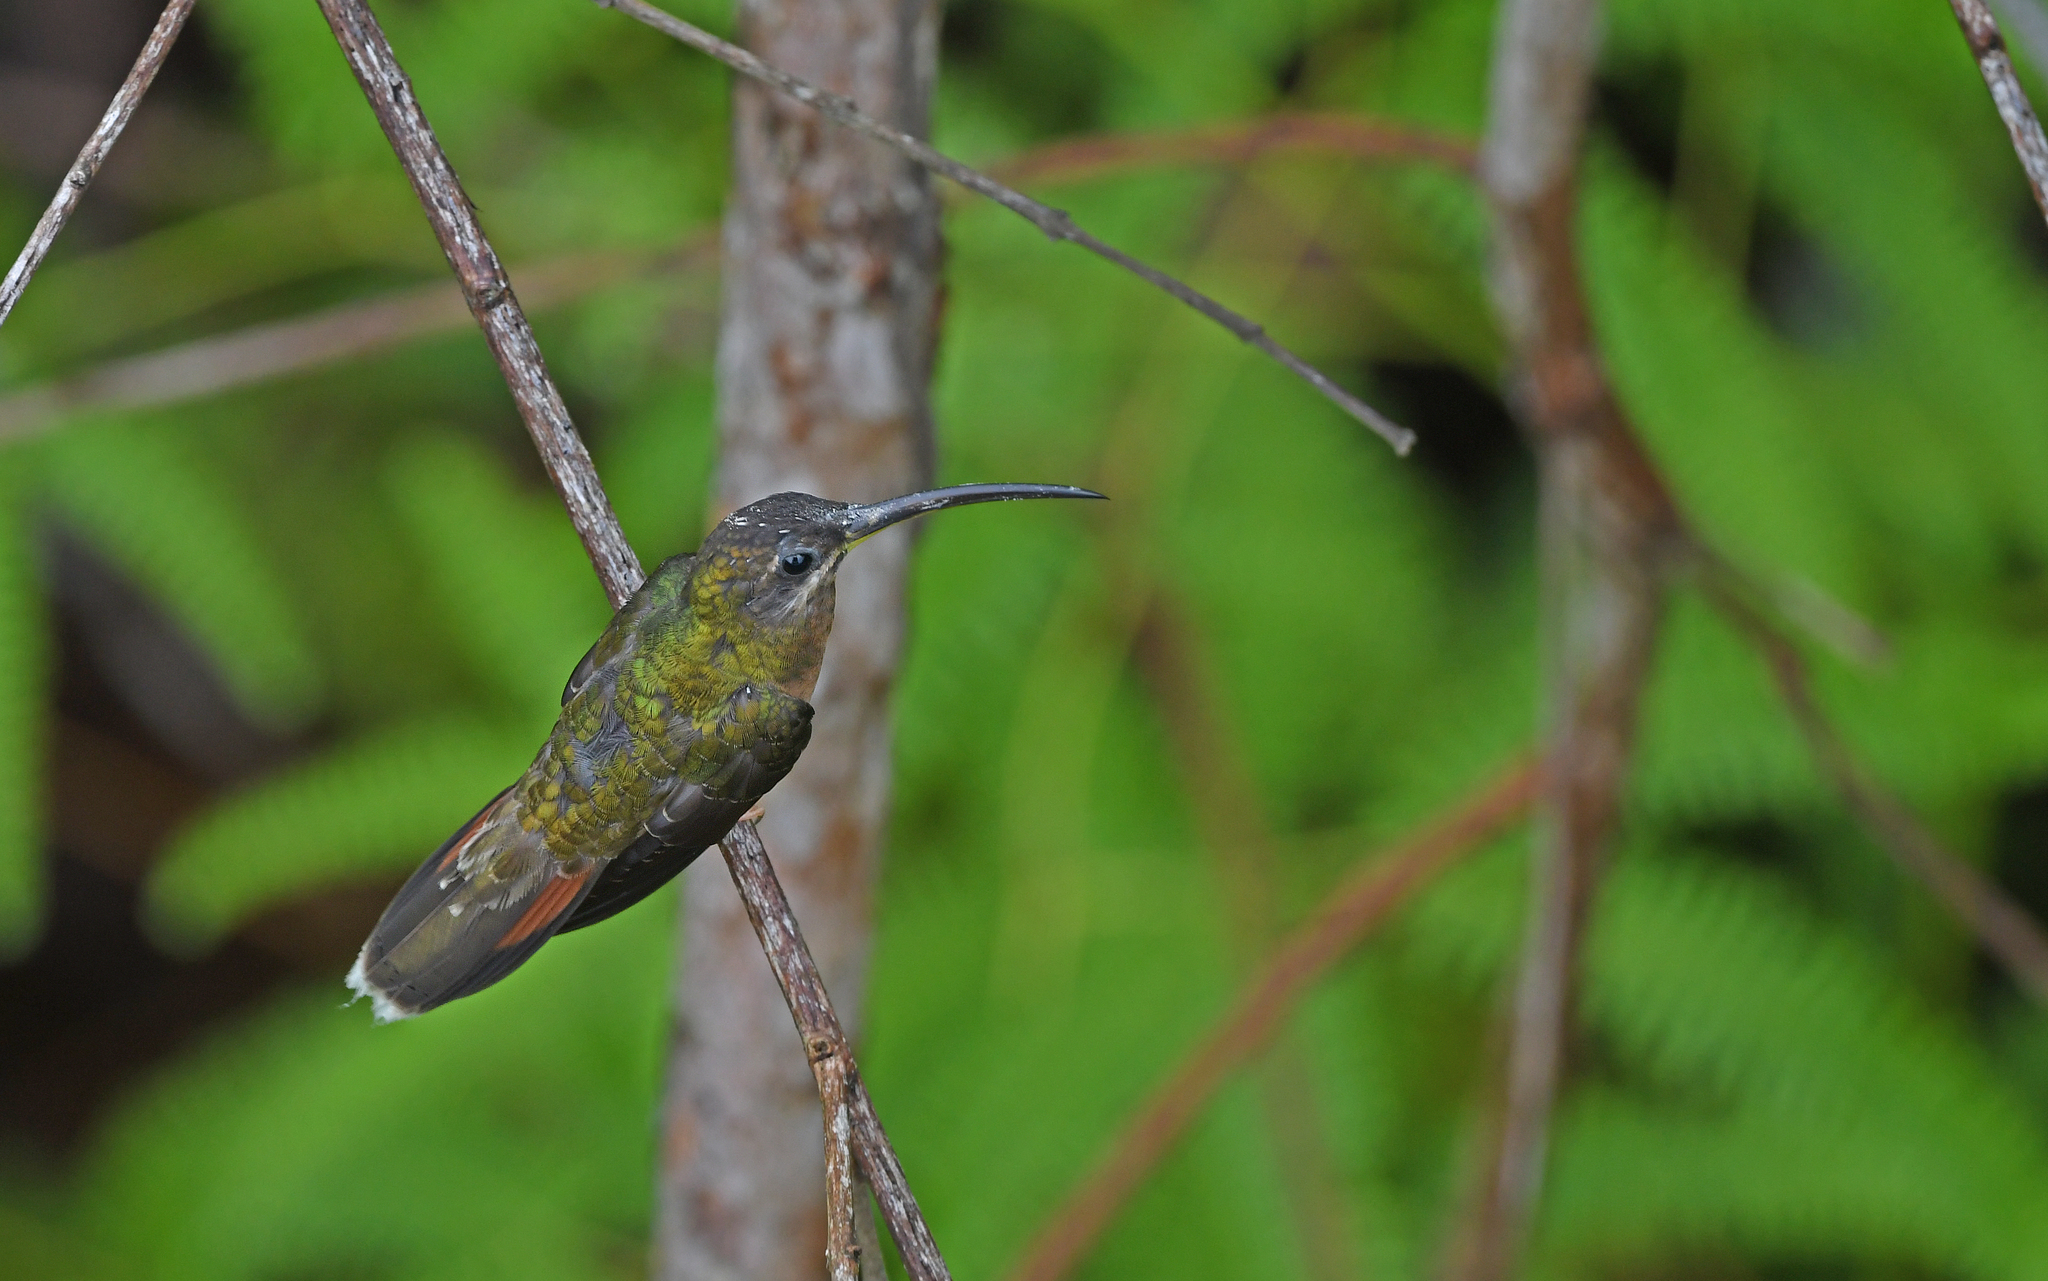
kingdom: Animalia
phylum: Chordata
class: Aves
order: Apodiformes
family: Trochilidae
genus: Glaucis
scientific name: Glaucis hirsutus
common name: Rufous-breasted hermit
